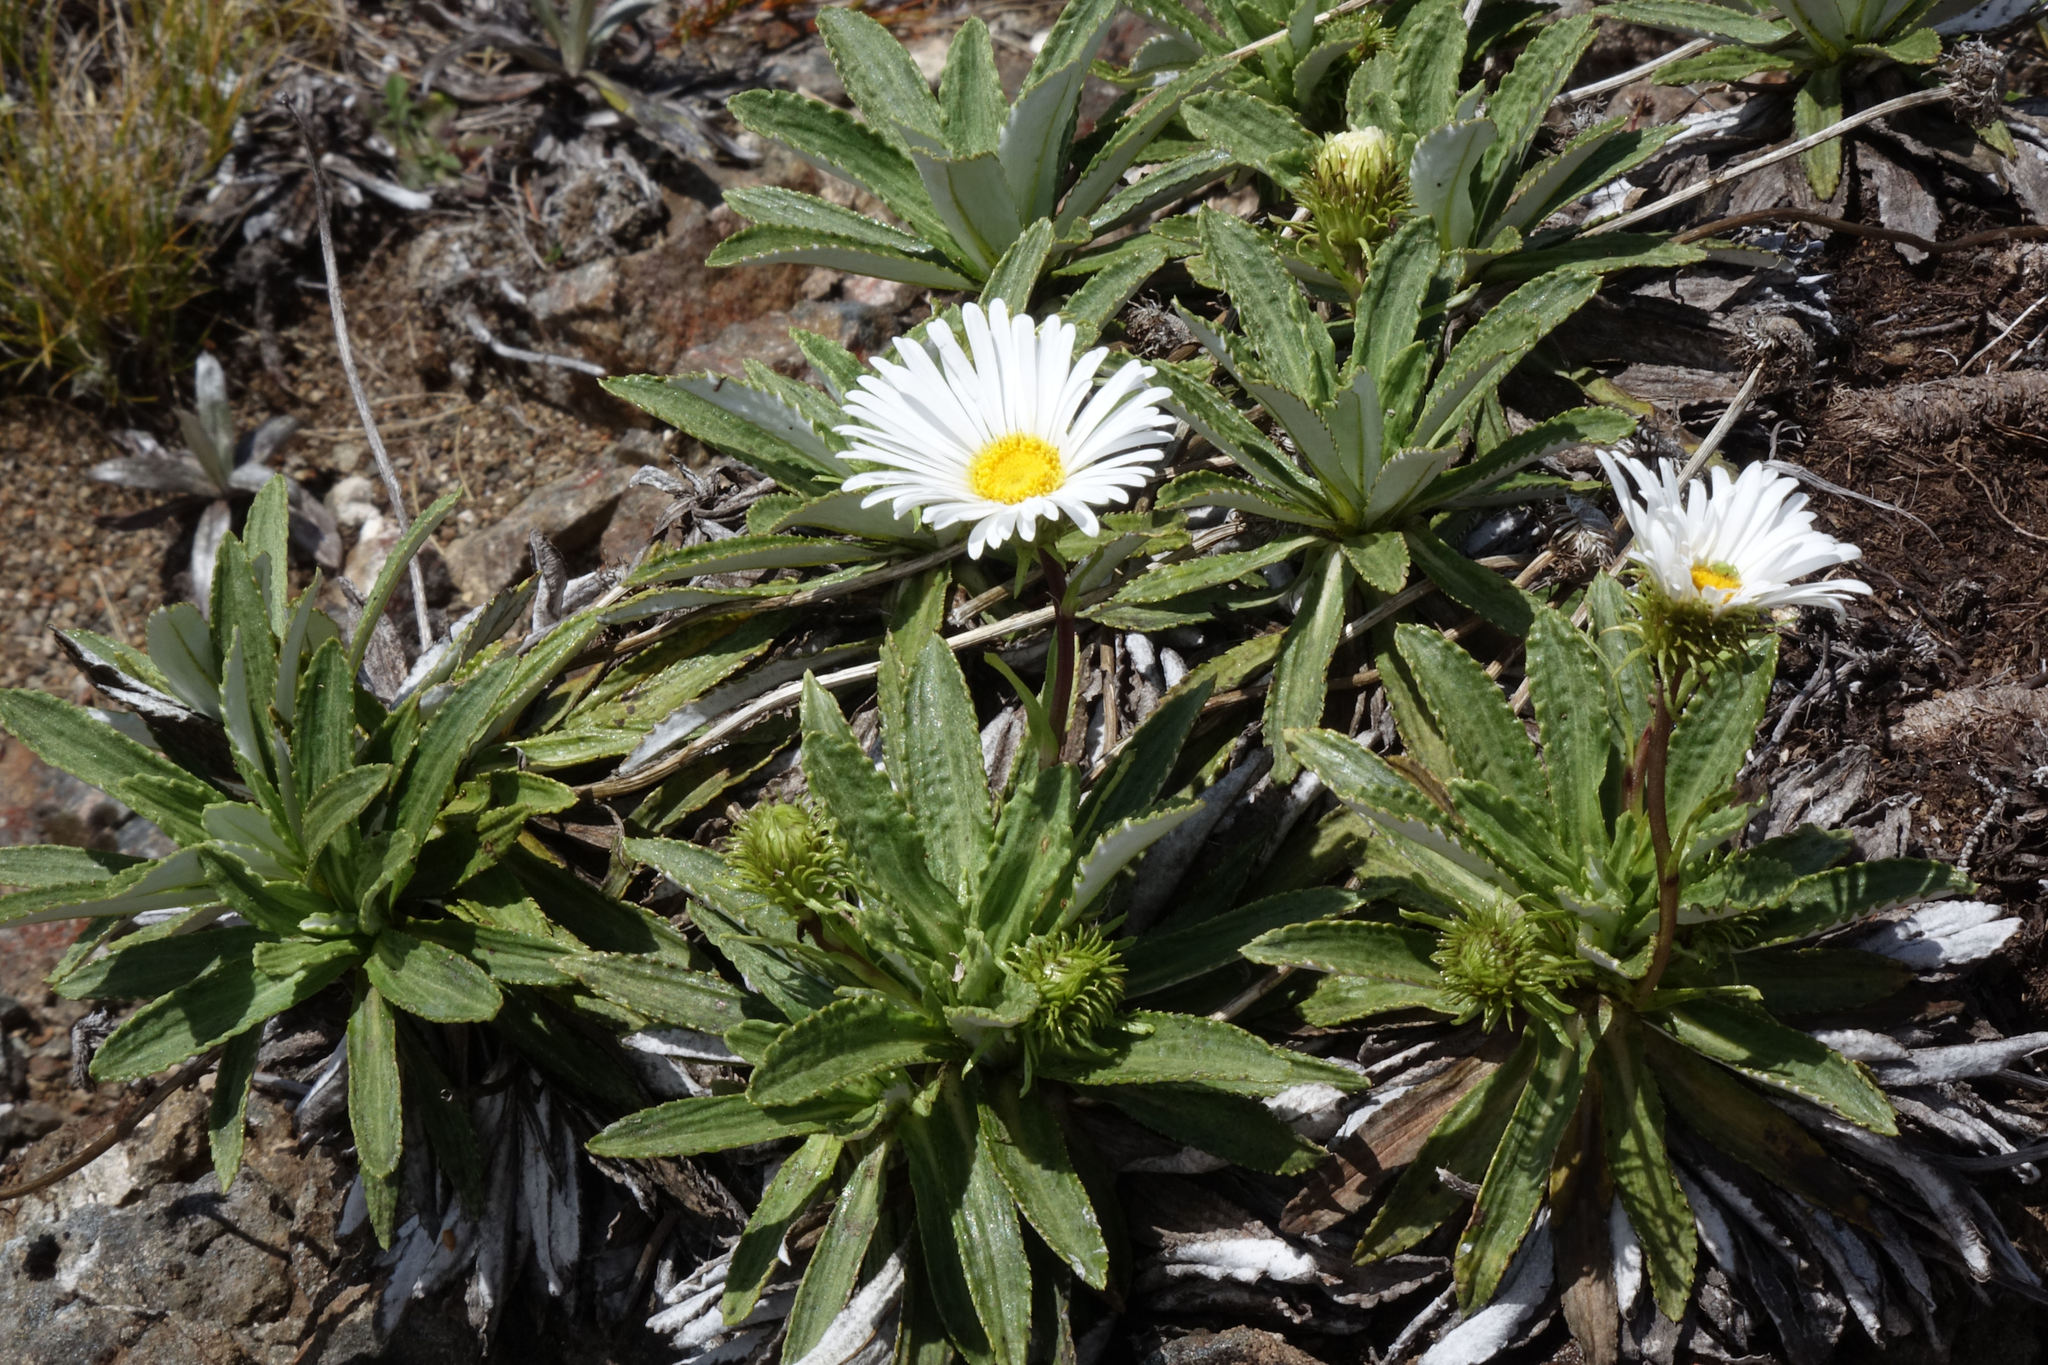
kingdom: Plantae
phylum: Tracheophyta
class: Magnoliopsida
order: Asterales
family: Asteraceae
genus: Celmisia
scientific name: Celmisia densiflora
